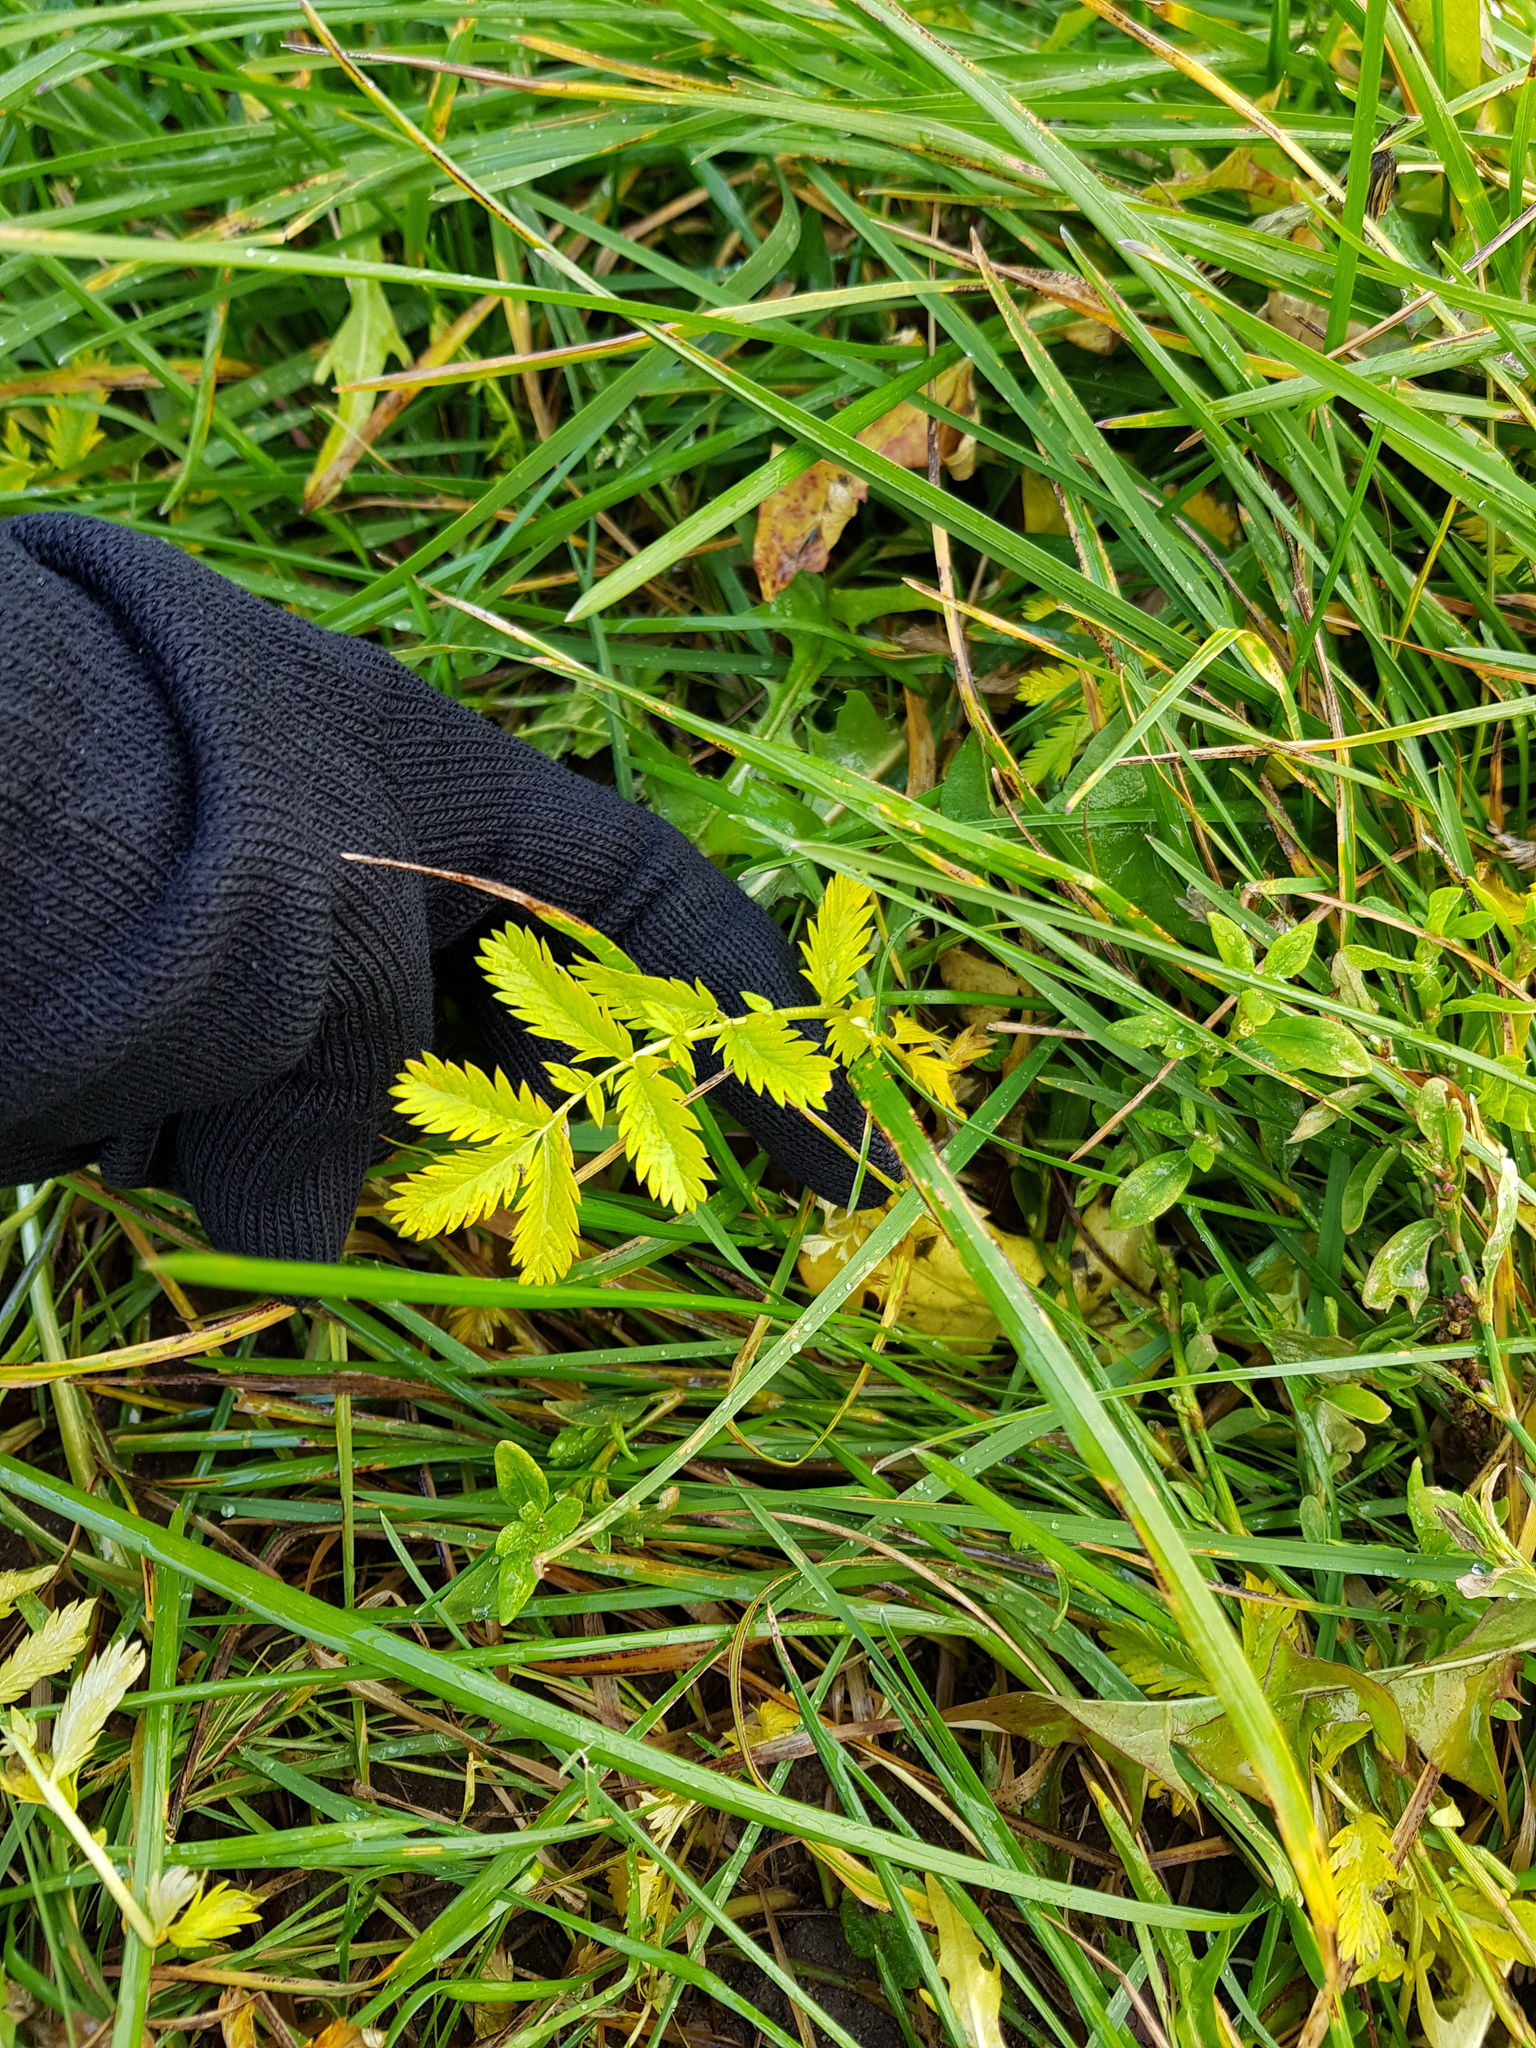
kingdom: Plantae
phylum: Tracheophyta
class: Magnoliopsida
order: Rosales
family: Rosaceae
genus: Argentina
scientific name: Argentina anserina
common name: Common silverweed
